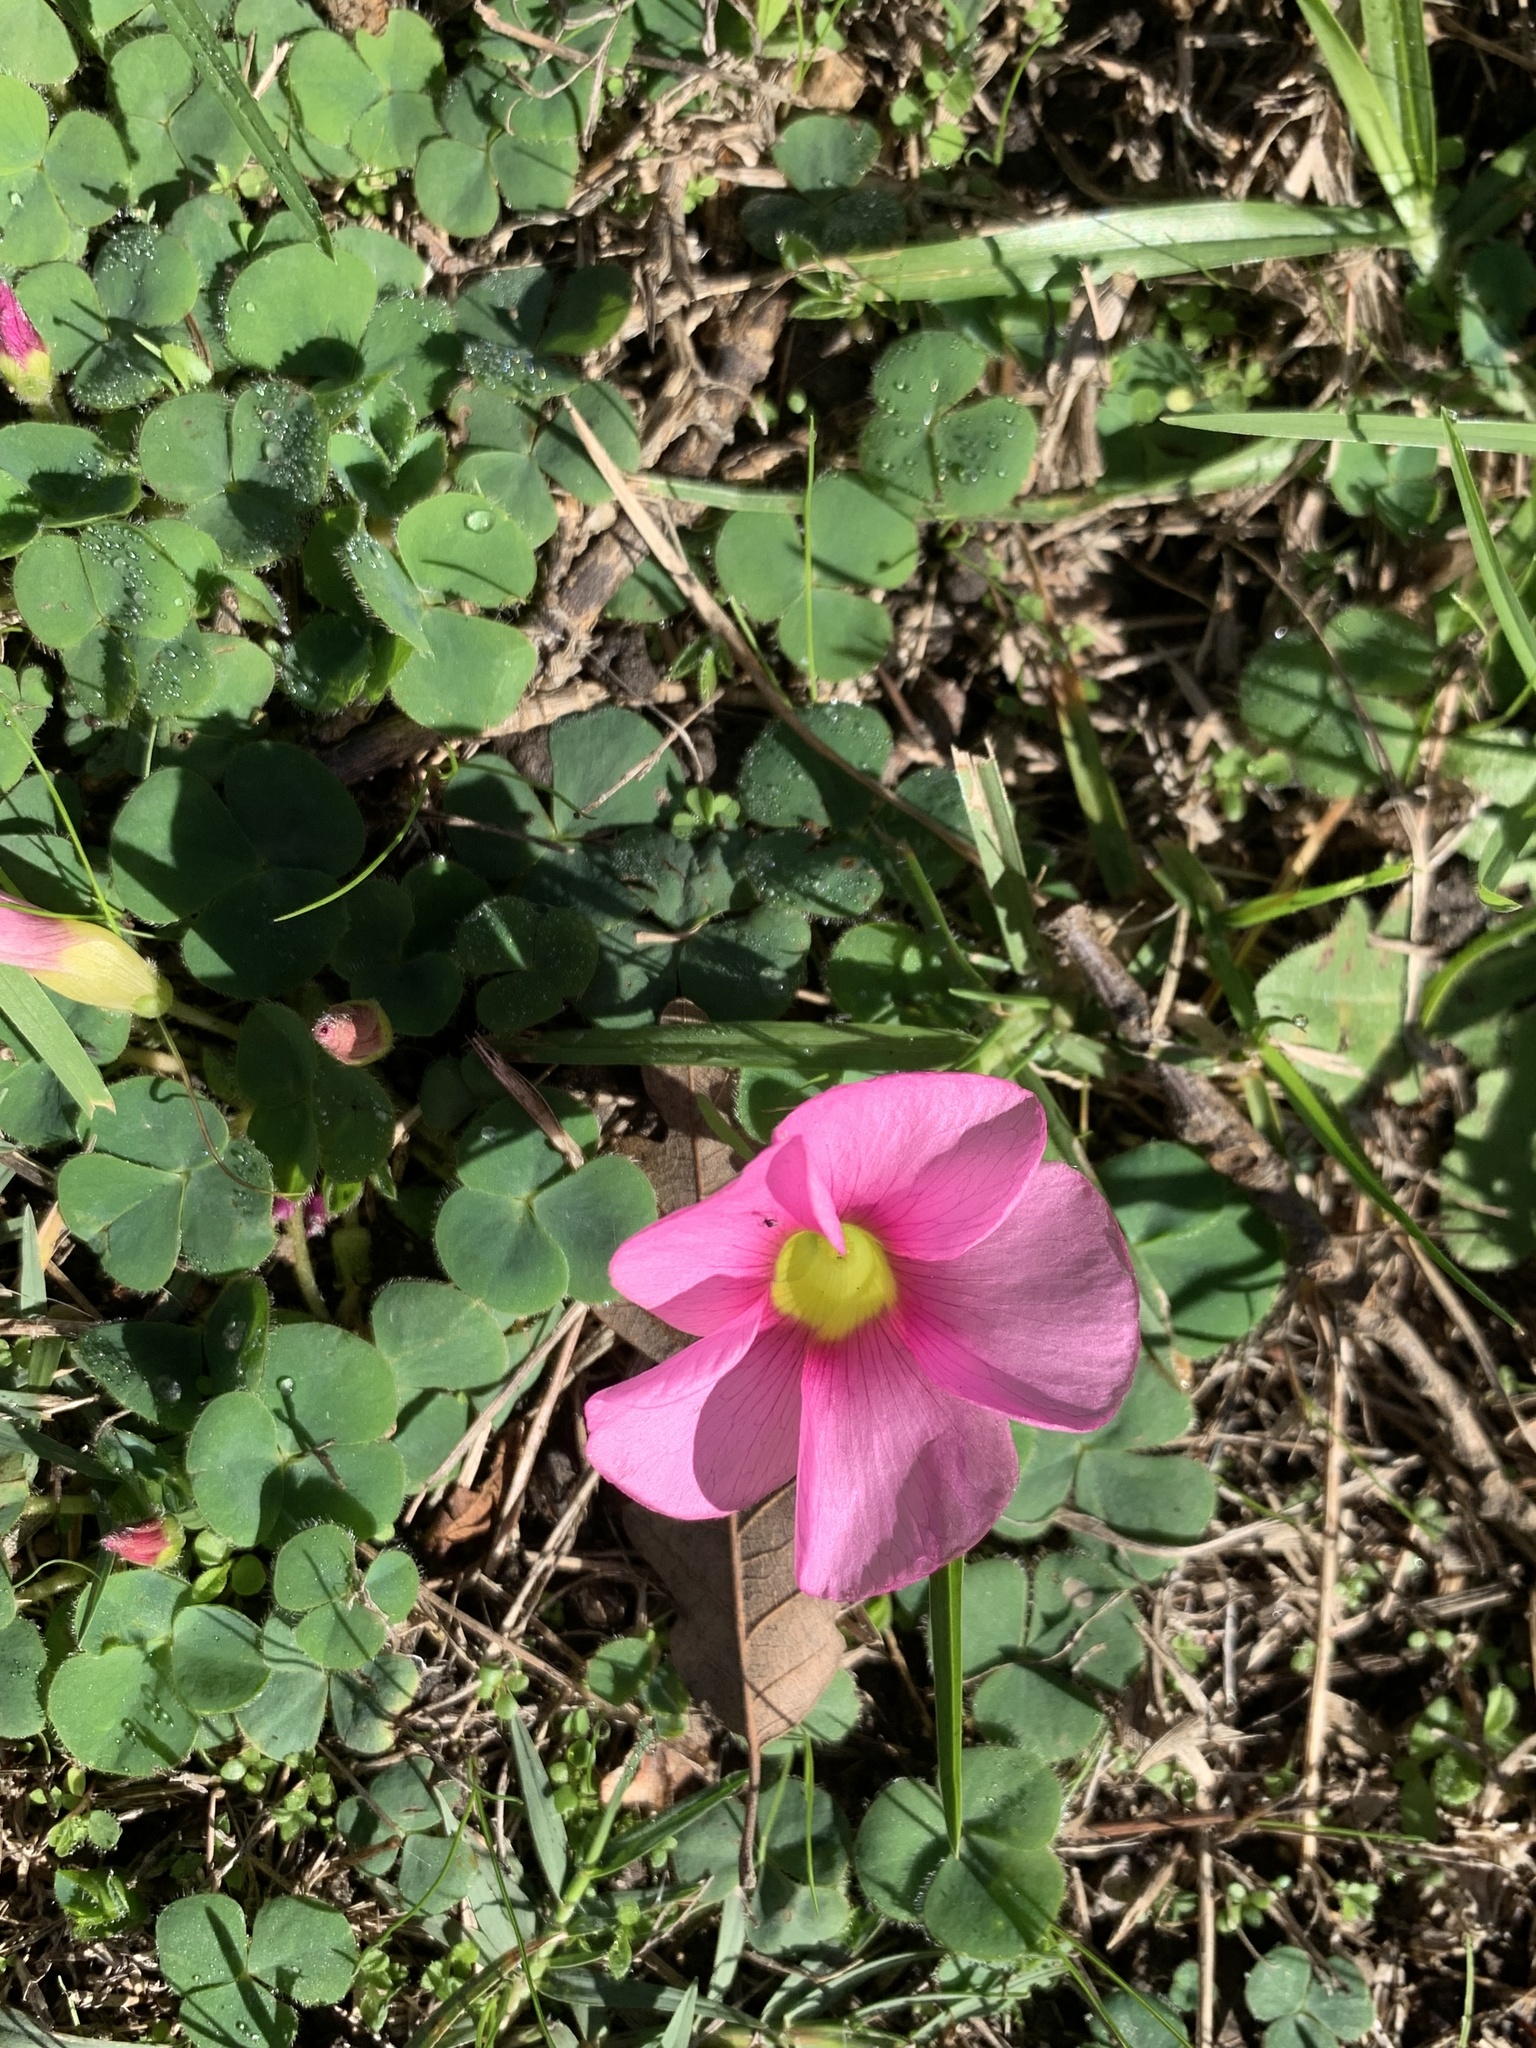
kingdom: Plantae
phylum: Tracheophyta
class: Magnoliopsida
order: Oxalidales
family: Oxalidaceae
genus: Oxalis
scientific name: Oxalis purpurea
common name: Purple woodsorrel
